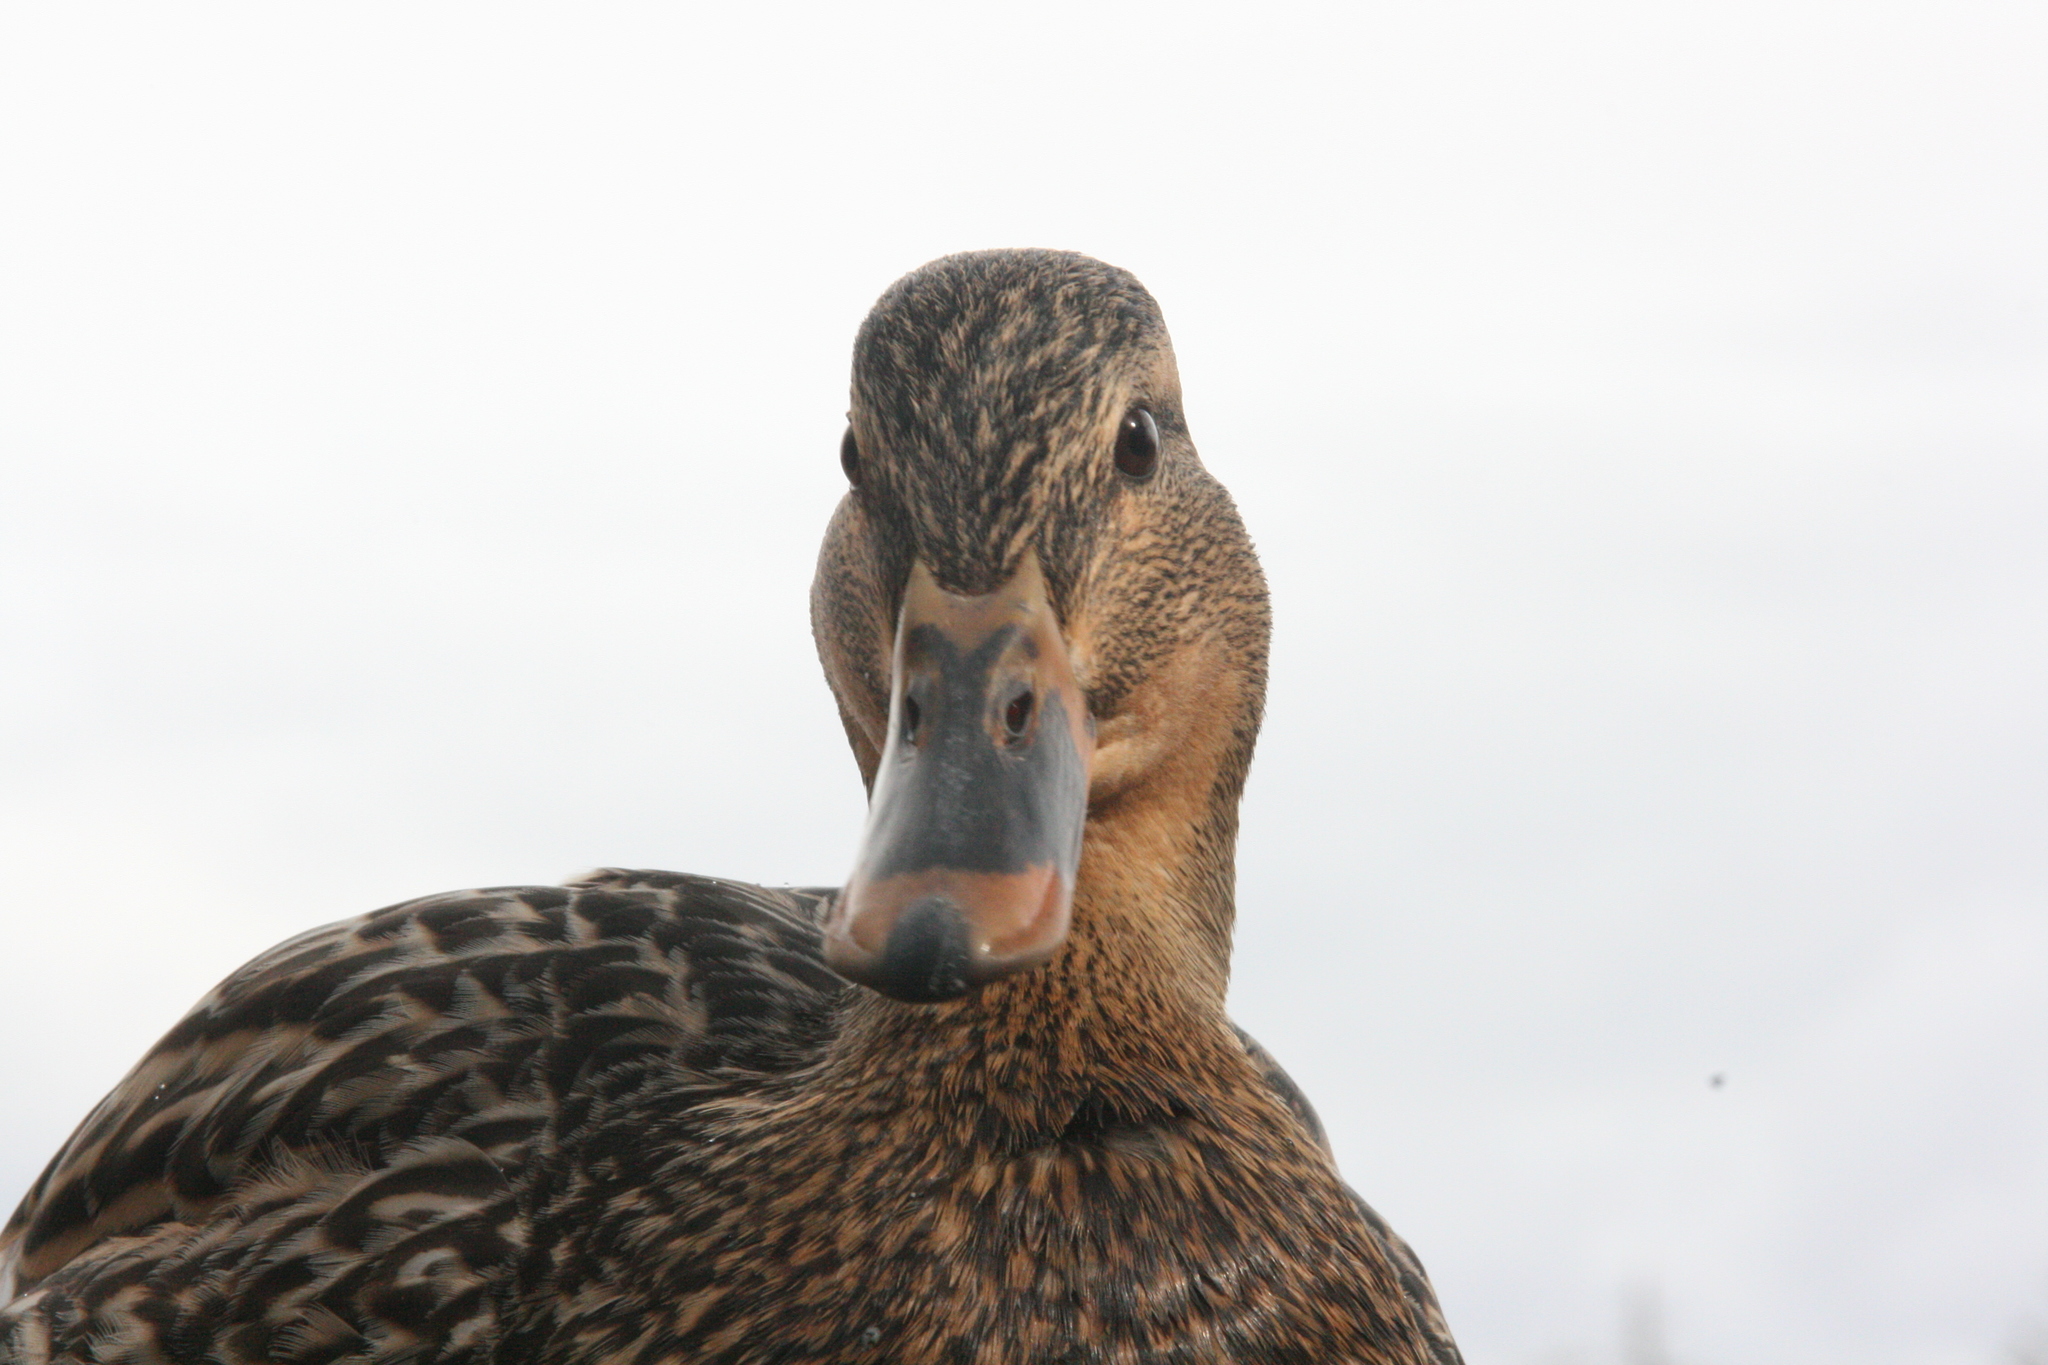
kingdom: Animalia
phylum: Chordata
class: Aves
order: Anseriformes
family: Anatidae
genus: Anas
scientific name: Anas platyrhynchos
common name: Mallard
